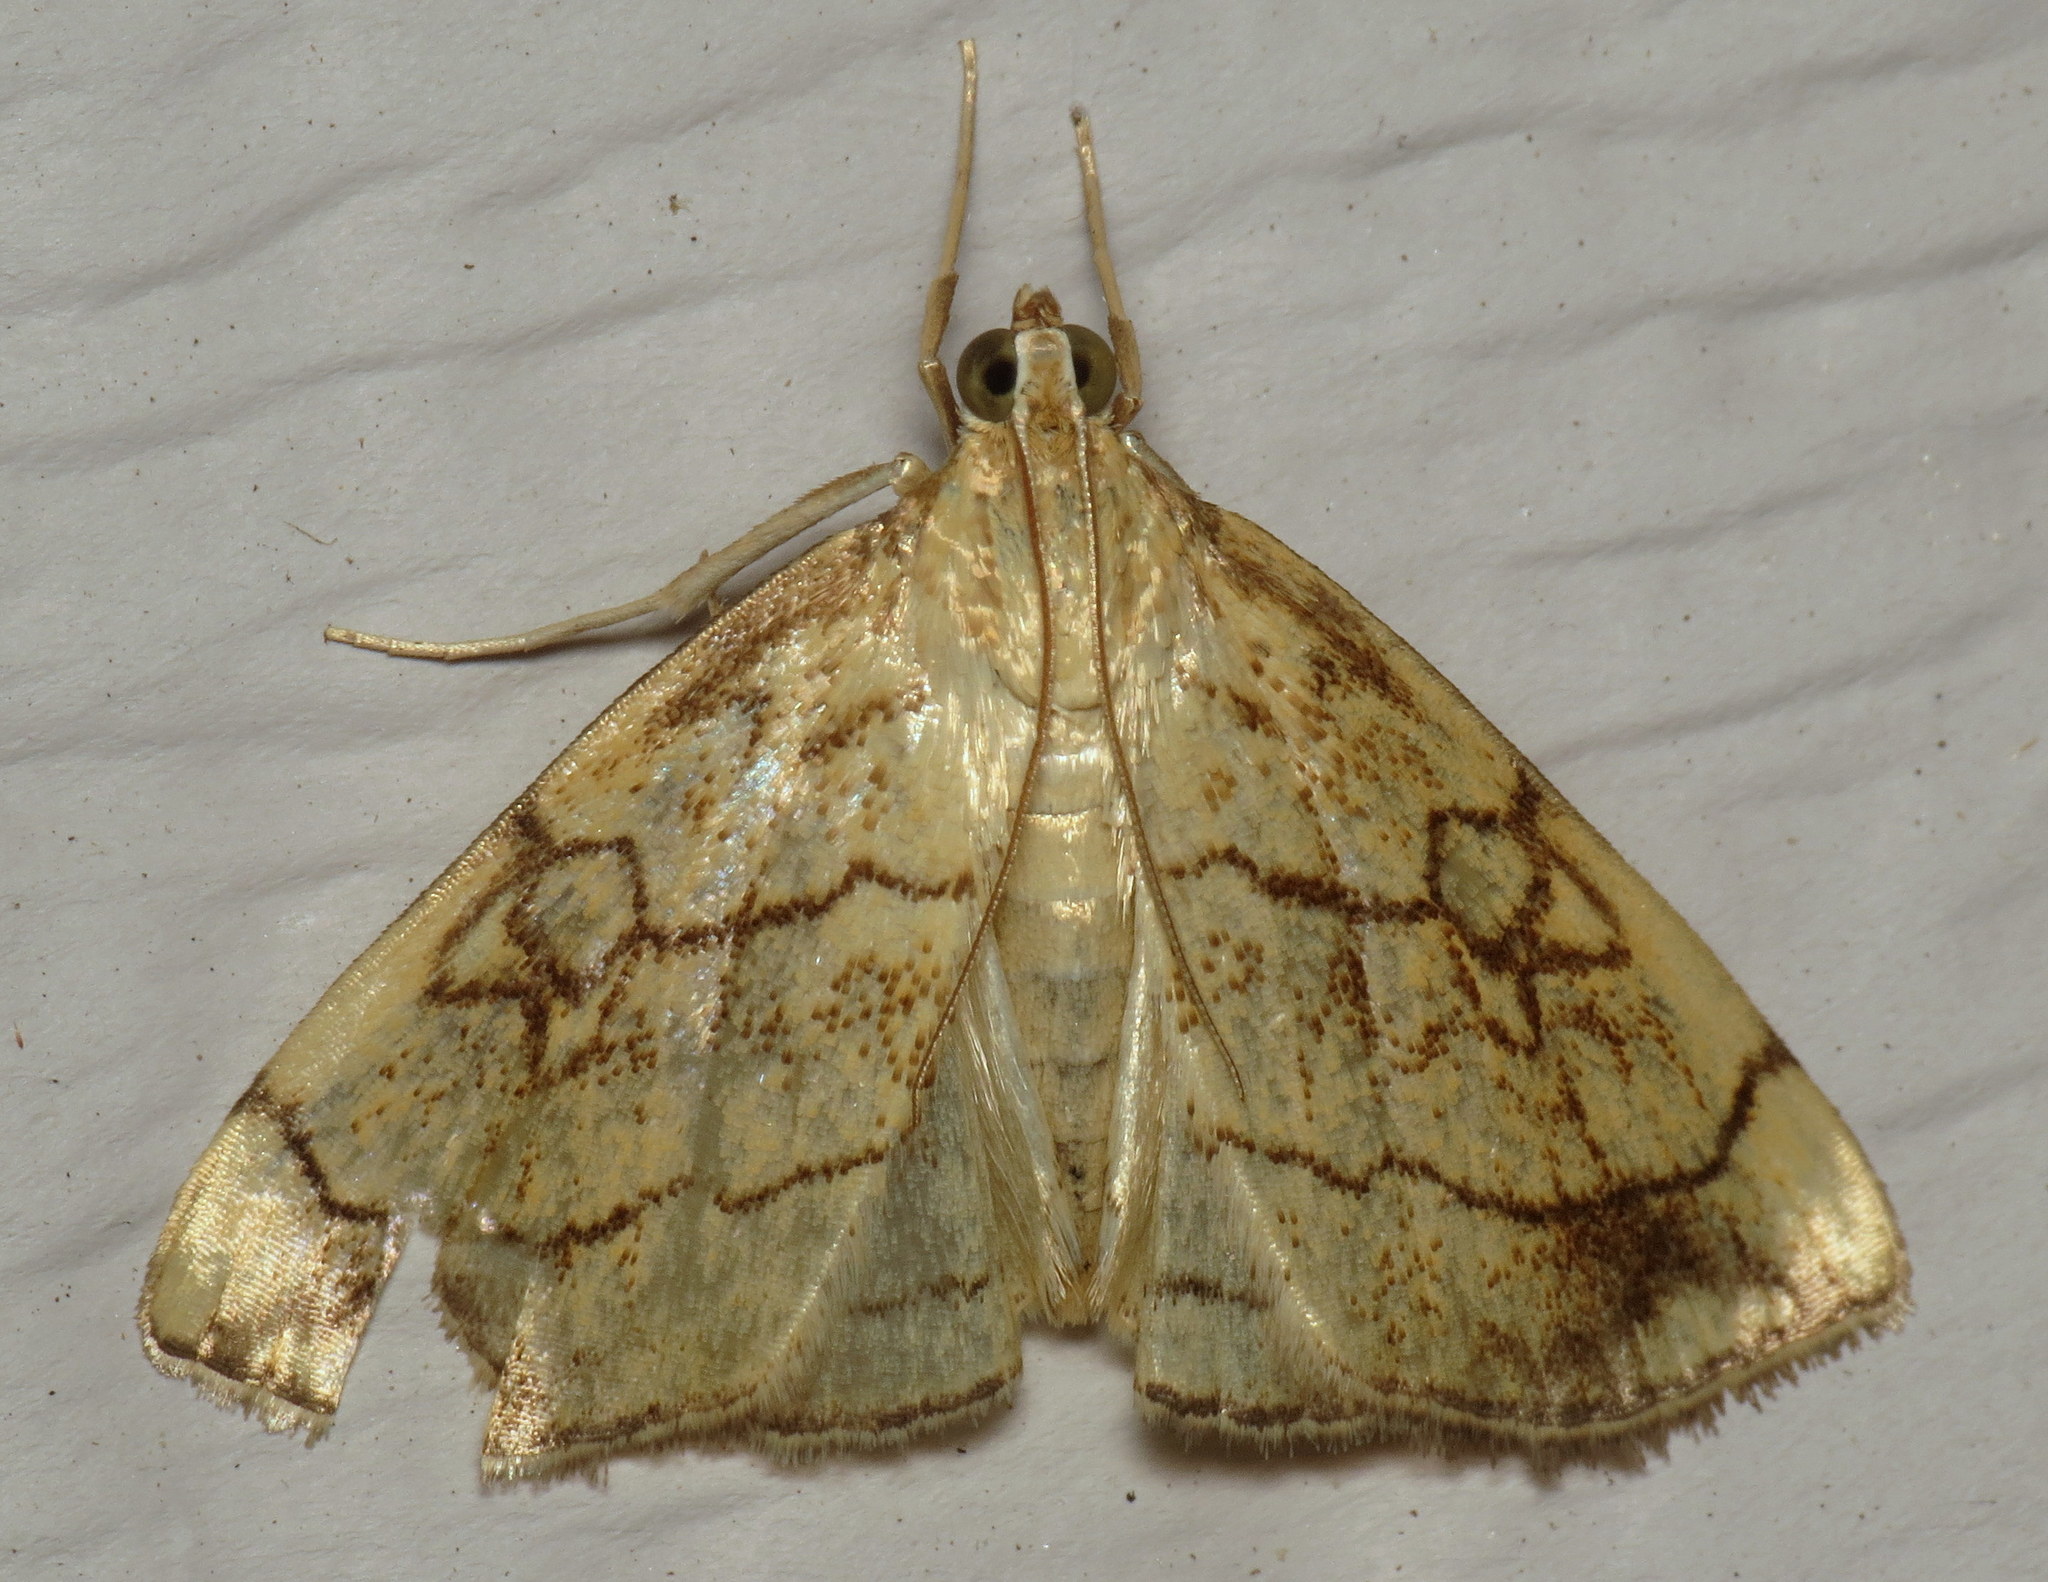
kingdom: Animalia
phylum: Arthropoda
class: Insecta
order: Lepidoptera
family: Crambidae
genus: Evergestis
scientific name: Evergestis pallidata
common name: Chequered pearl
